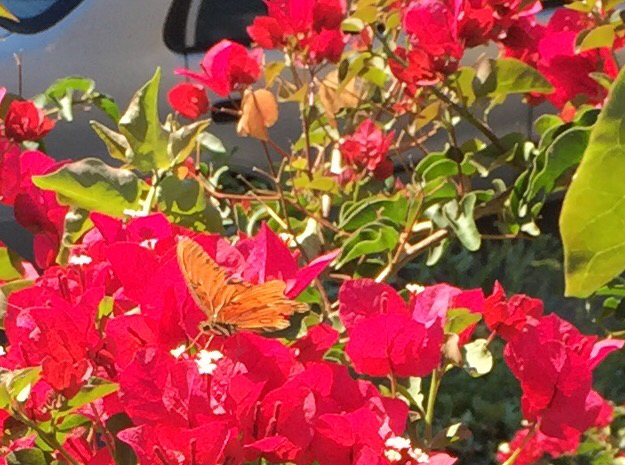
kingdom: Animalia
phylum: Arthropoda
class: Insecta
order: Lepidoptera
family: Nymphalidae
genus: Dione
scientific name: Dione vanillae
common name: Gulf fritillary
